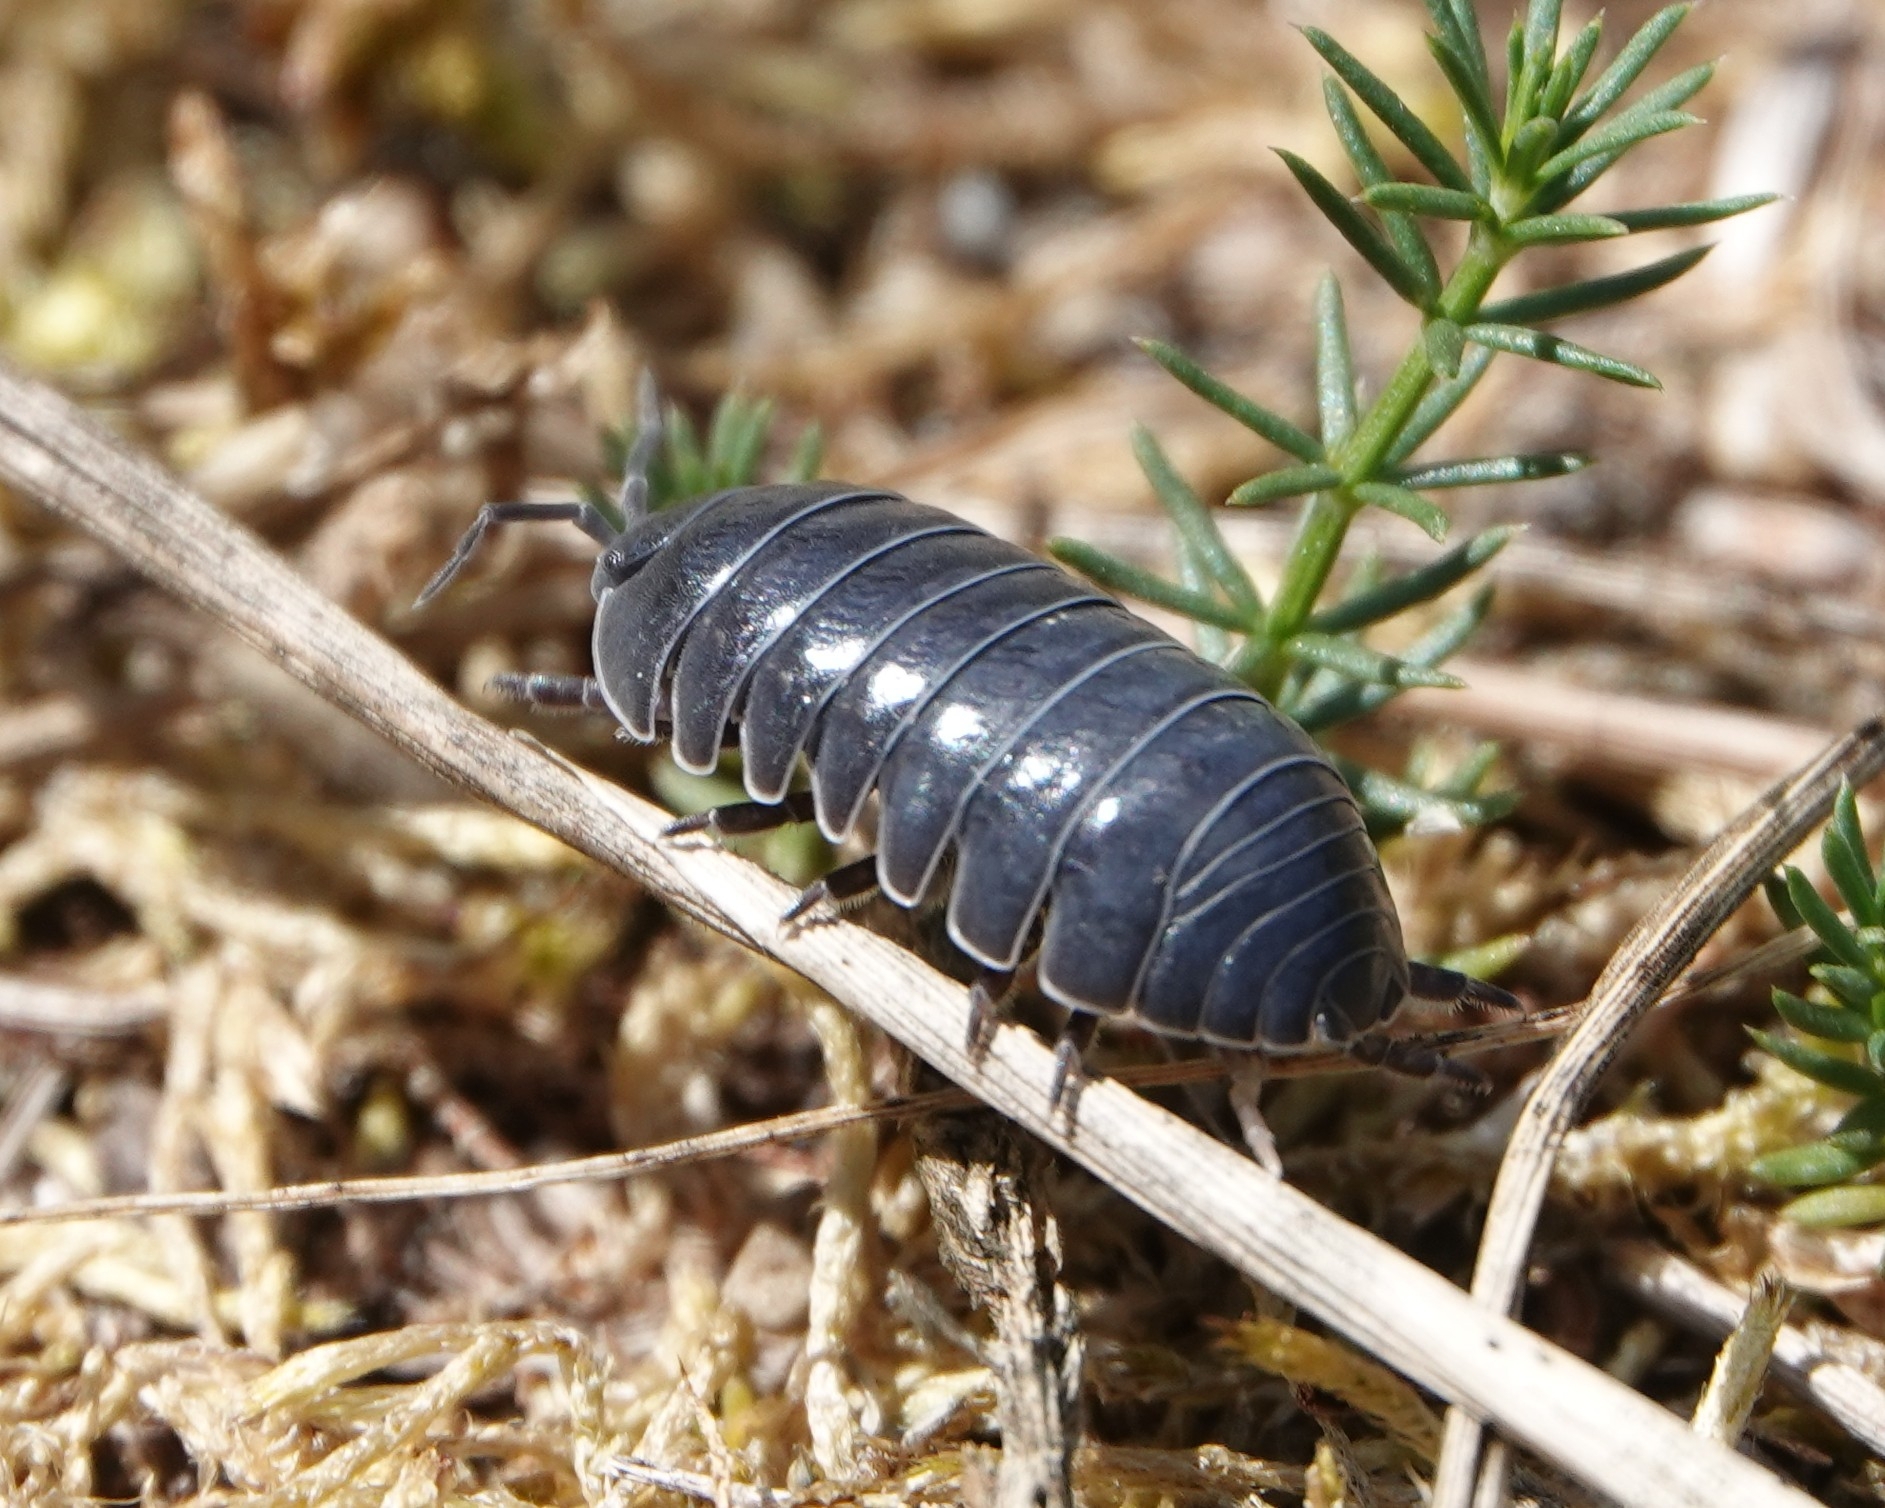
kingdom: Animalia
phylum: Arthropoda
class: Malacostraca
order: Isopoda
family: Armadillidiidae
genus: Armadillidium
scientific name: Armadillidium vulgare
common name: Common pill woodlouse
